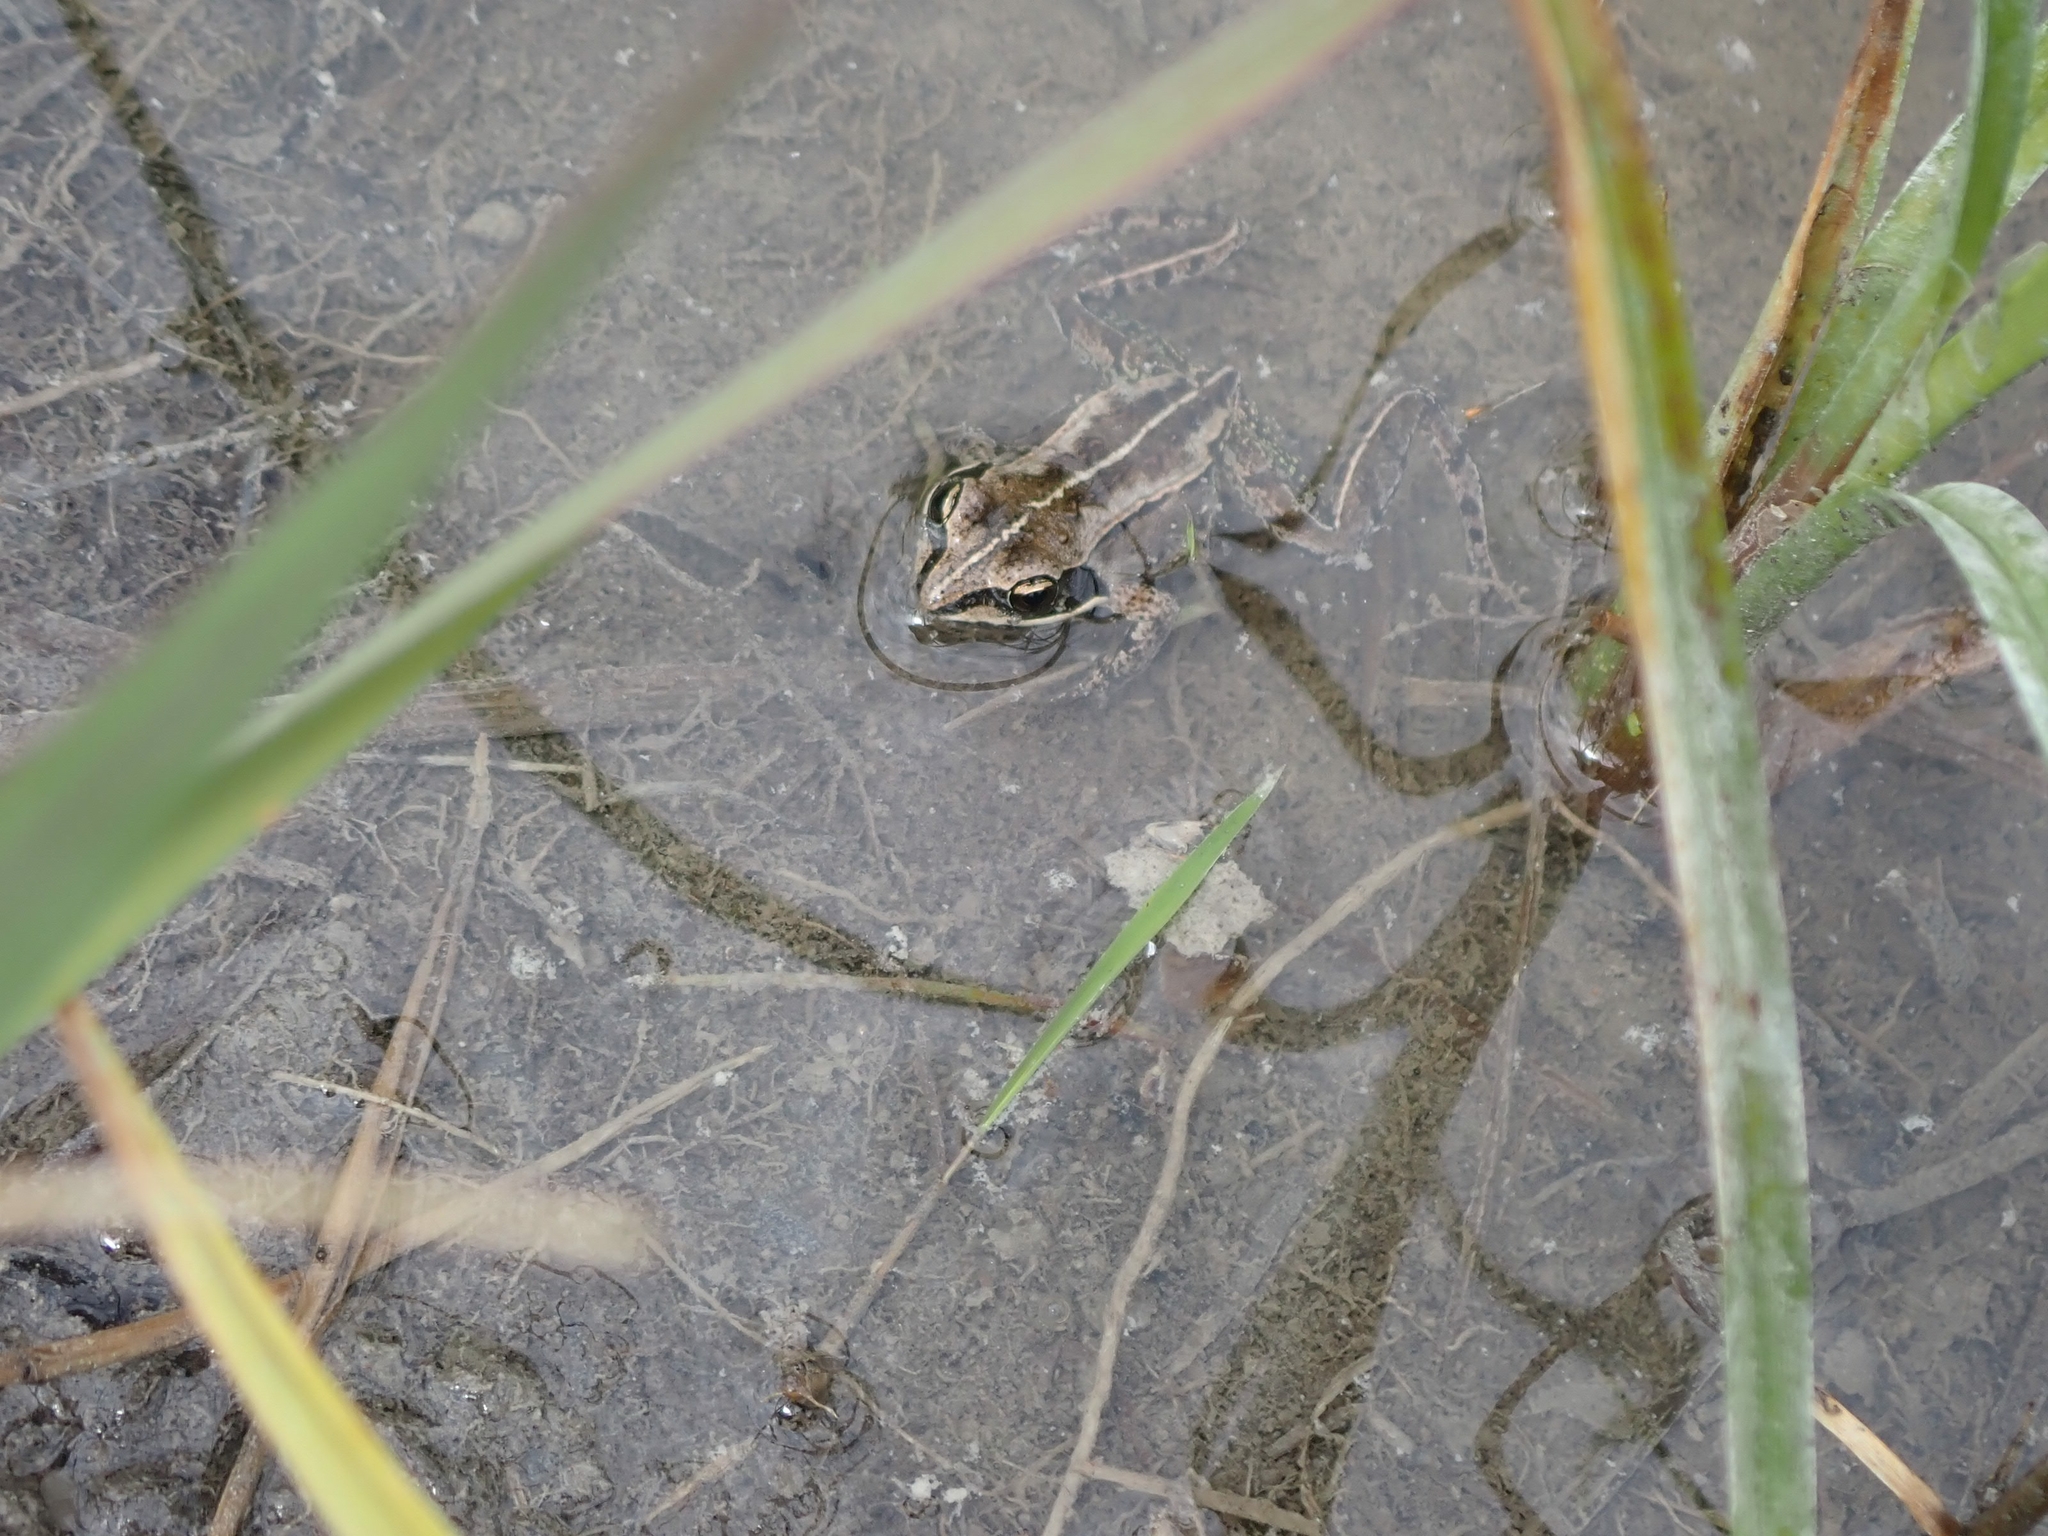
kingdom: Animalia
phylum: Chordata
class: Amphibia
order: Anura
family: Ranidae
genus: Lithobates
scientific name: Lithobates sylvaticus
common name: Wood frog
